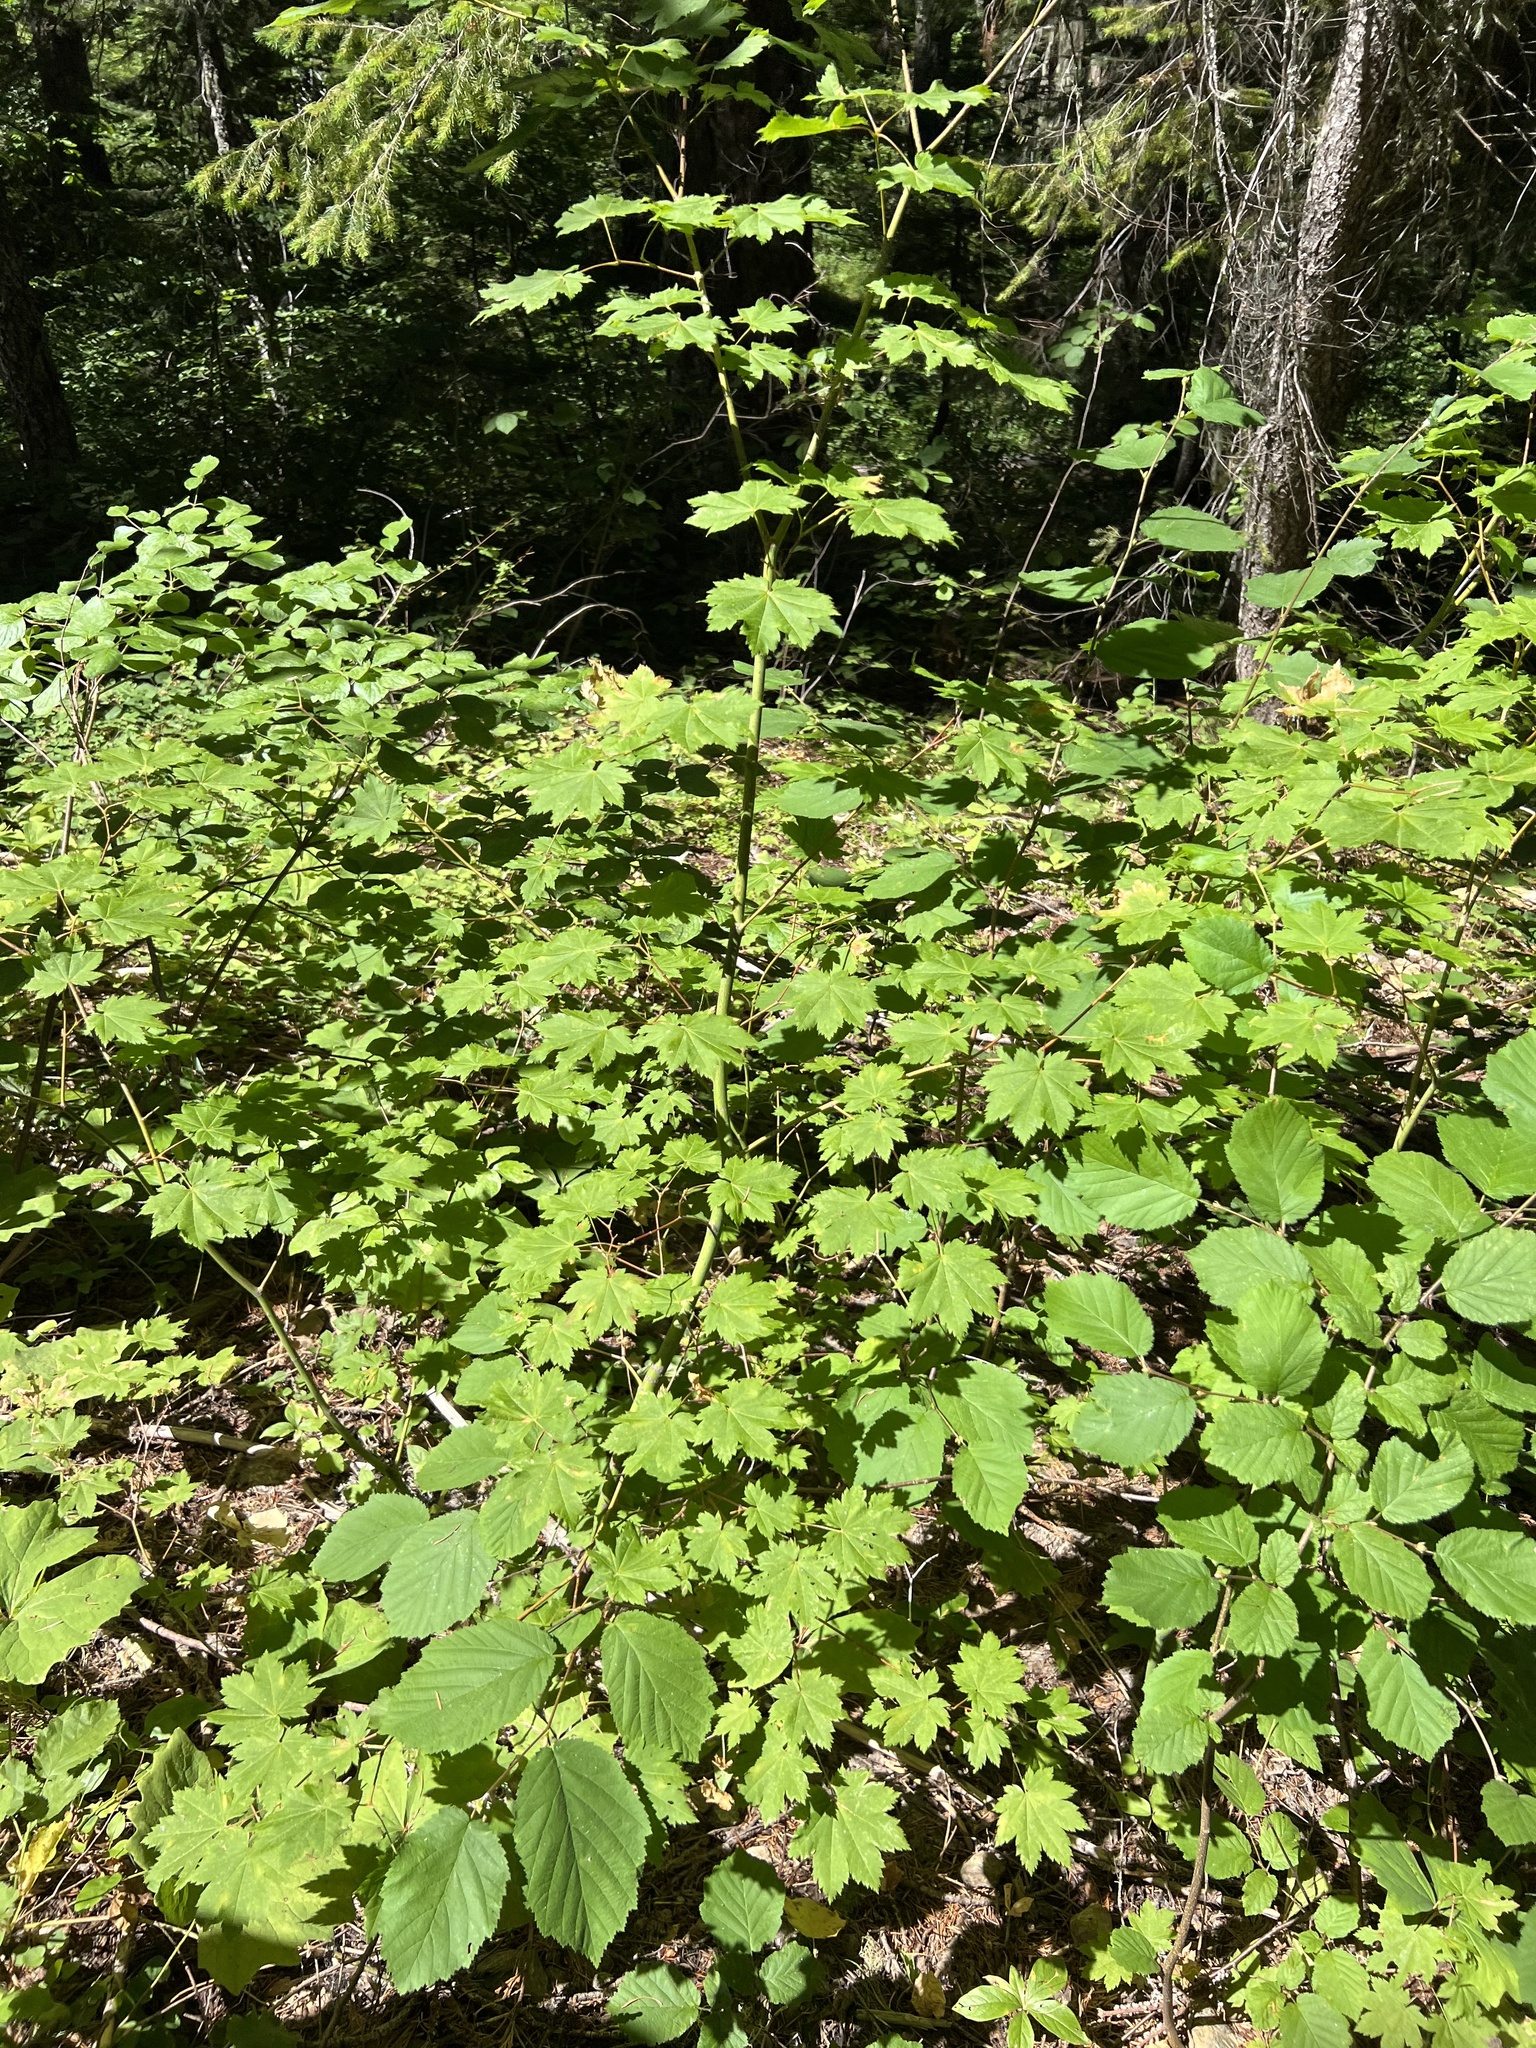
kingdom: Plantae
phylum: Tracheophyta
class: Magnoliopsida
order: Sapindales
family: Sapindaceae
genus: Acer
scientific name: Acer circinatum
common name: Vine maple
